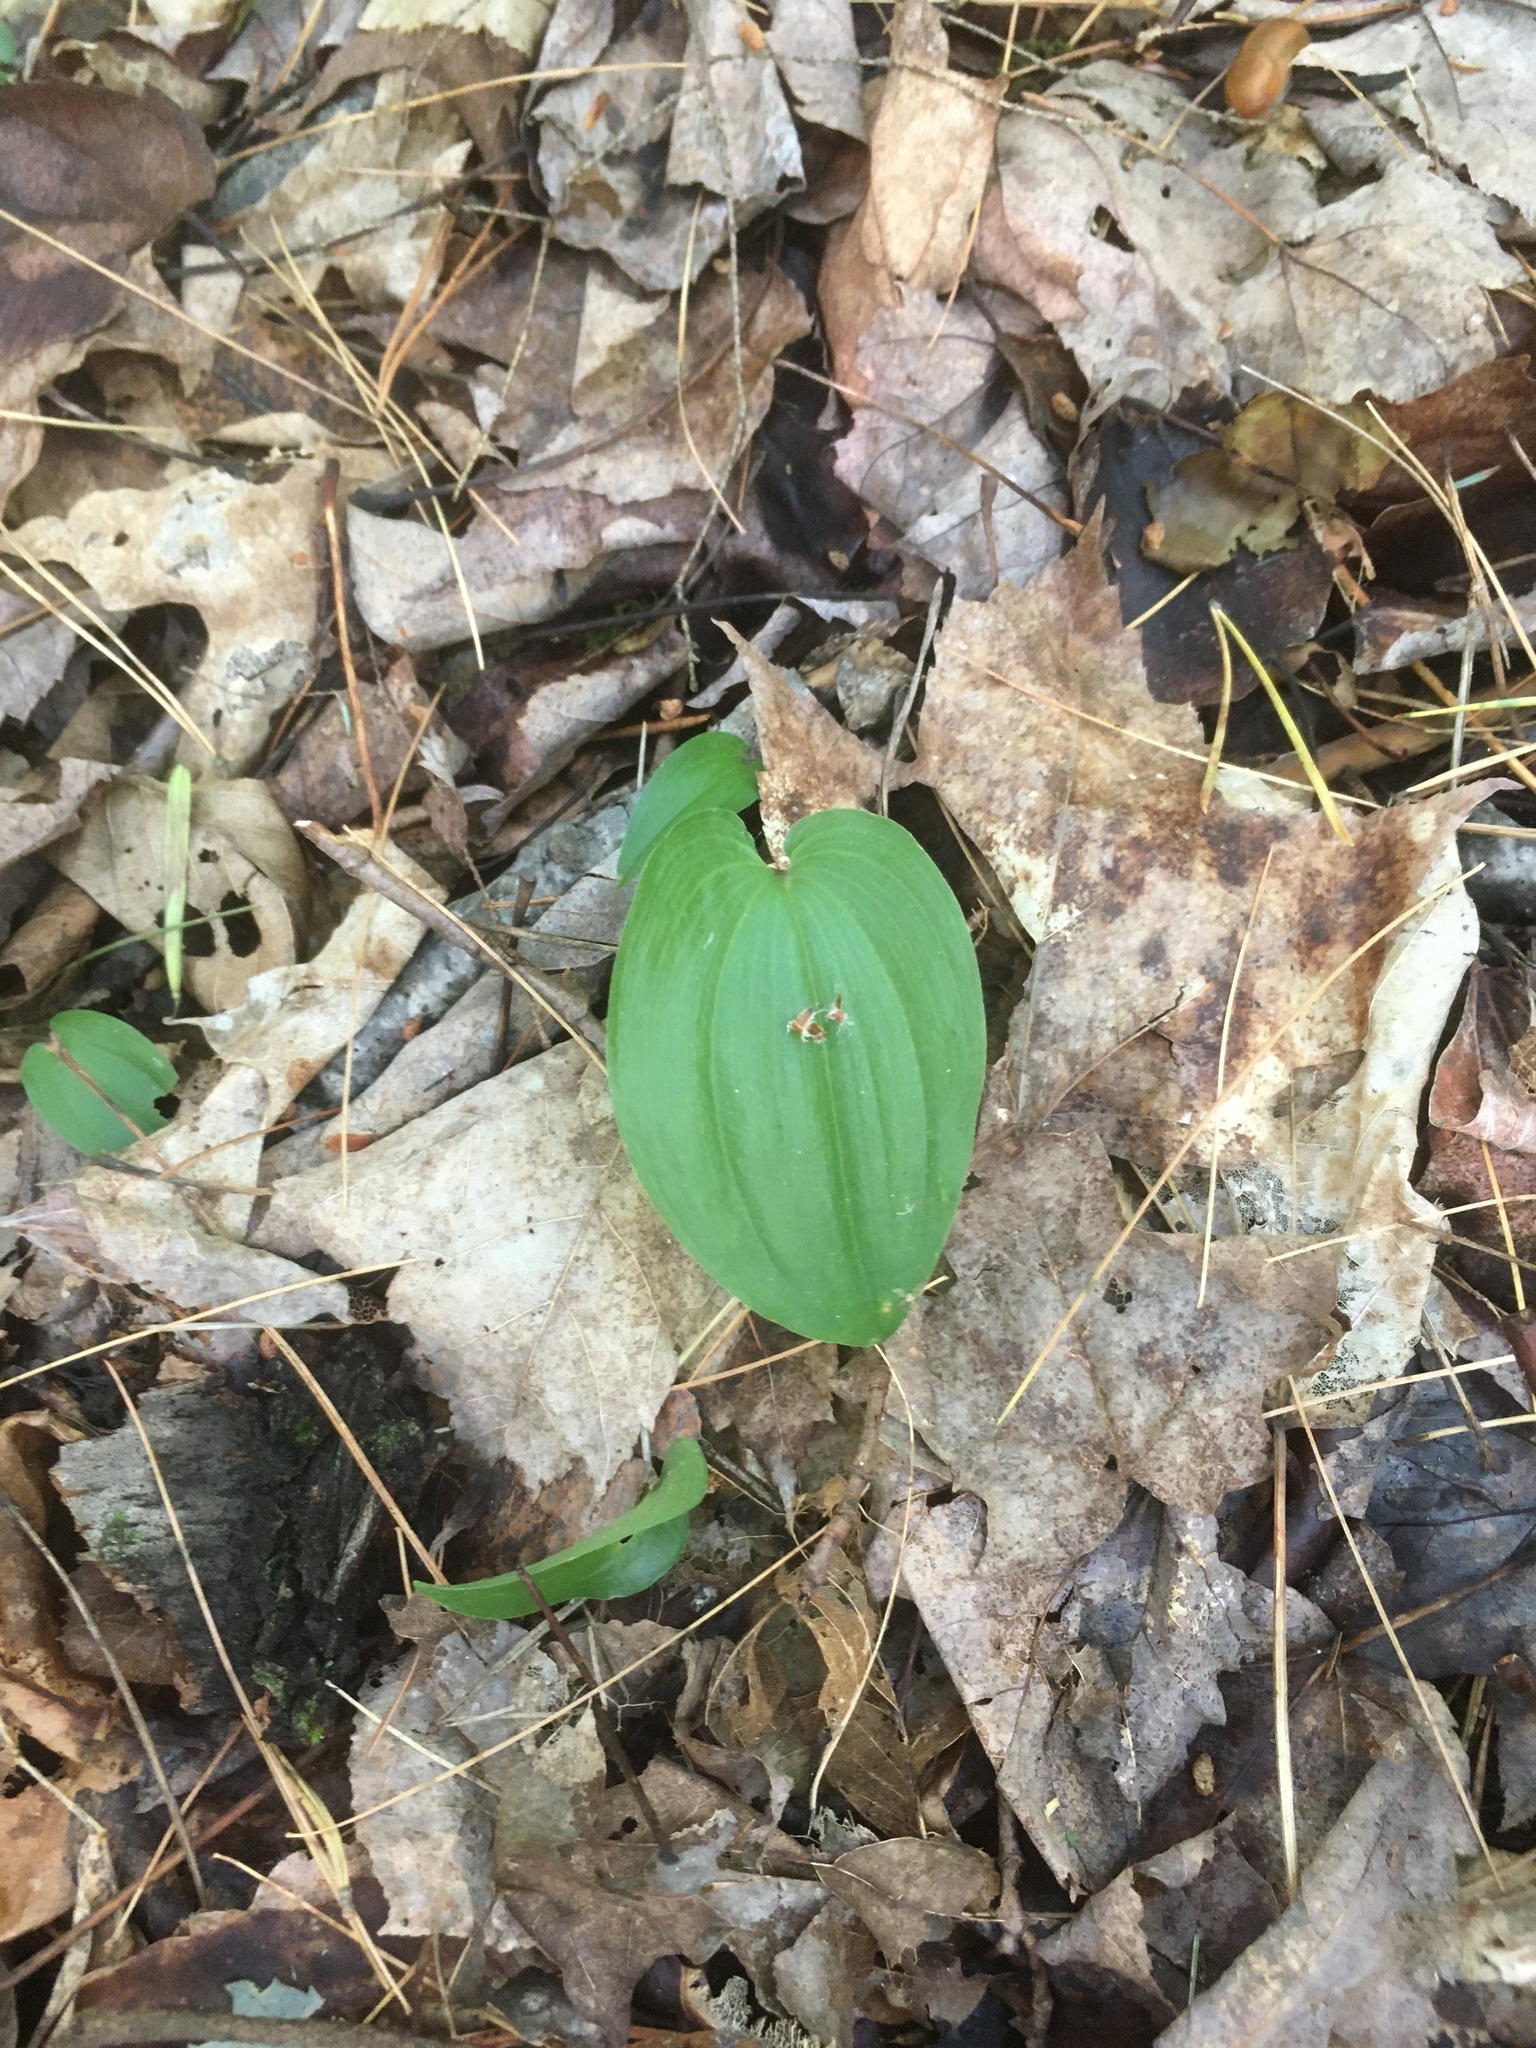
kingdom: Plantae
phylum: Tracheophyta
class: Liliopsida
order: Asparagales
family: Asparagaceae
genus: Maianthemum
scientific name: Maianthemum canadense
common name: False lily-of-the-valley
